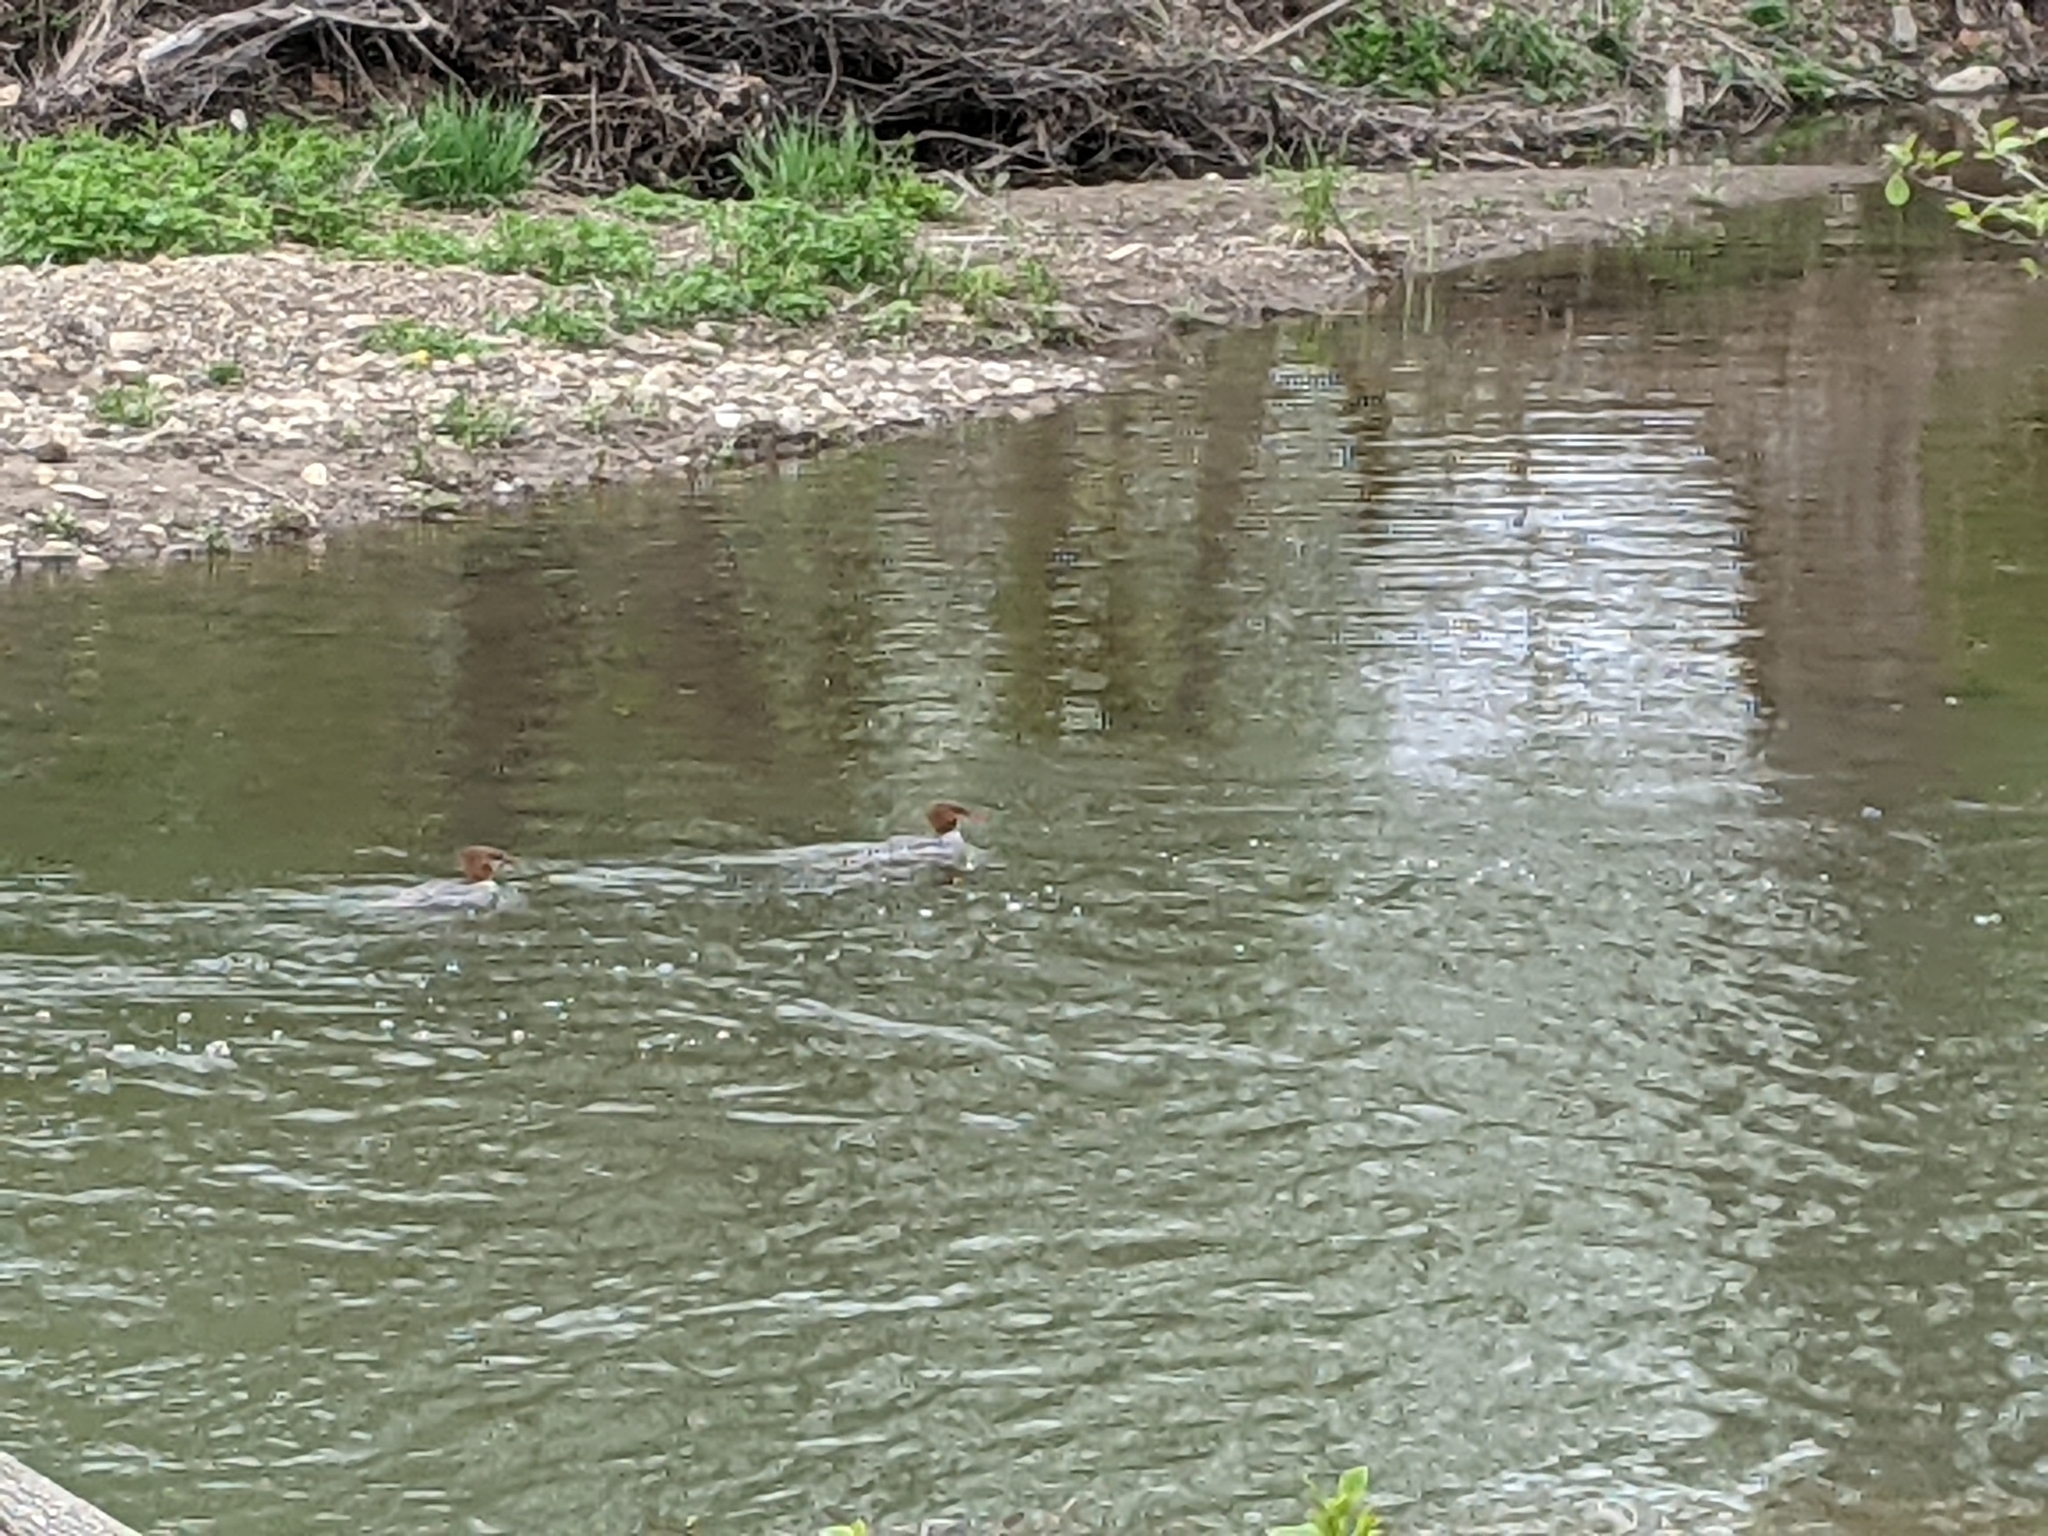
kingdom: Animalia
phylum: Chordata
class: Aves
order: Anseriformes
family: Anatidae
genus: Mergus
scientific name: Mergus merganser
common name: Common merganser
